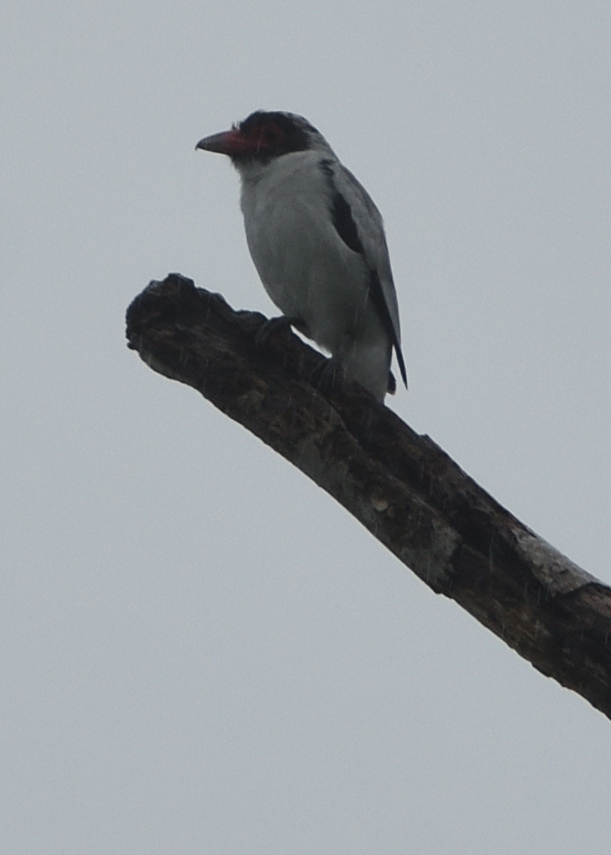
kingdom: Animalia
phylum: Chordata
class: Aves
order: Passeriformes
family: Cotingidae
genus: Tityra
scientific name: Tityra semifasciata
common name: Masked tityra
